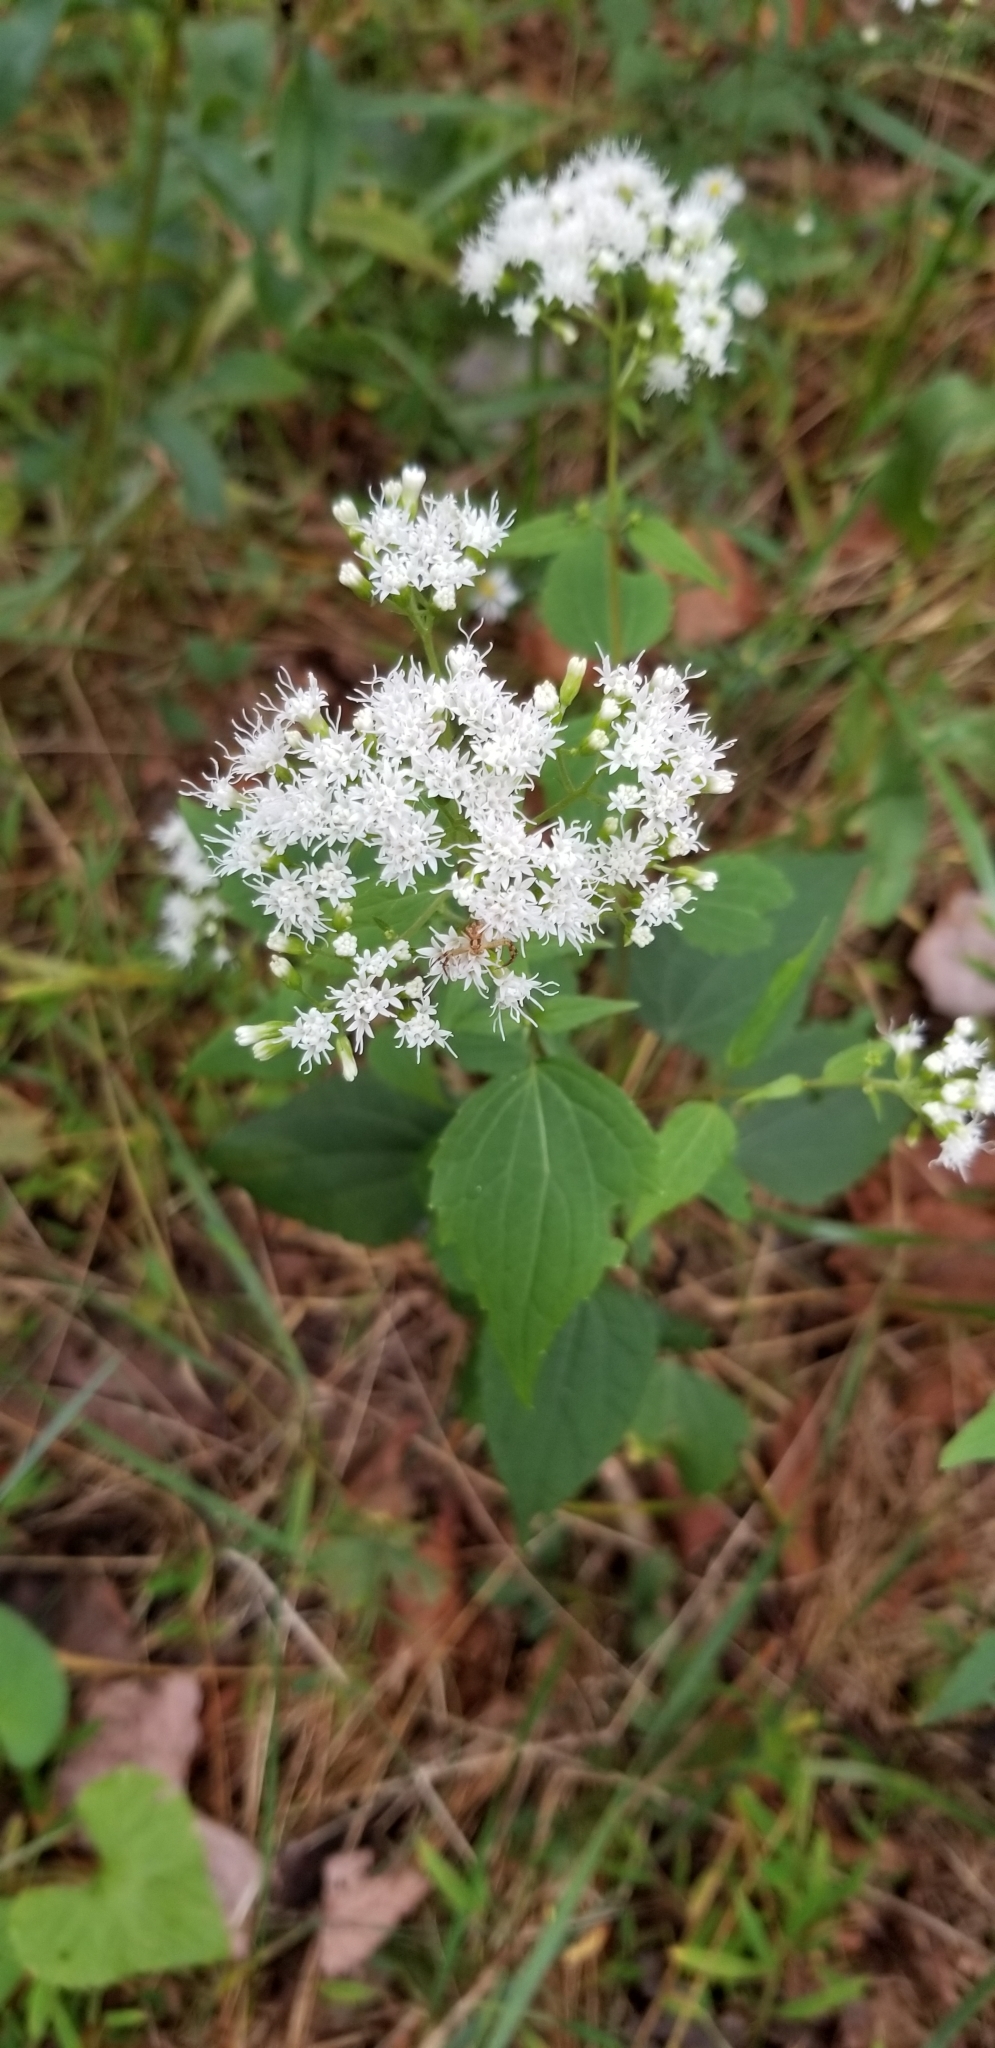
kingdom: Plantae
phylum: Tracheophyta
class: Magnoliopsida
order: Asterales
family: Asteraceae
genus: Ageratina
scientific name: Ageratina altissima
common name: White snakeroot
